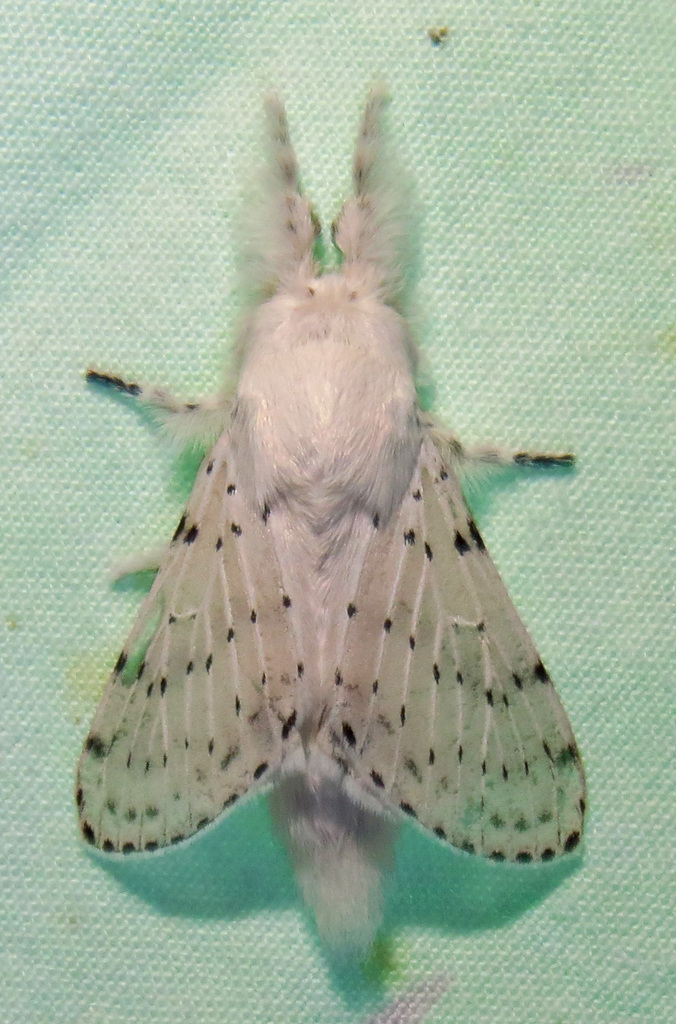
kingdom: Animalia
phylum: Arthropoda
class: Insecta
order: Lepidoptera
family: Lasiocampidae
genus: Artace
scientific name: Artace cribrarius
